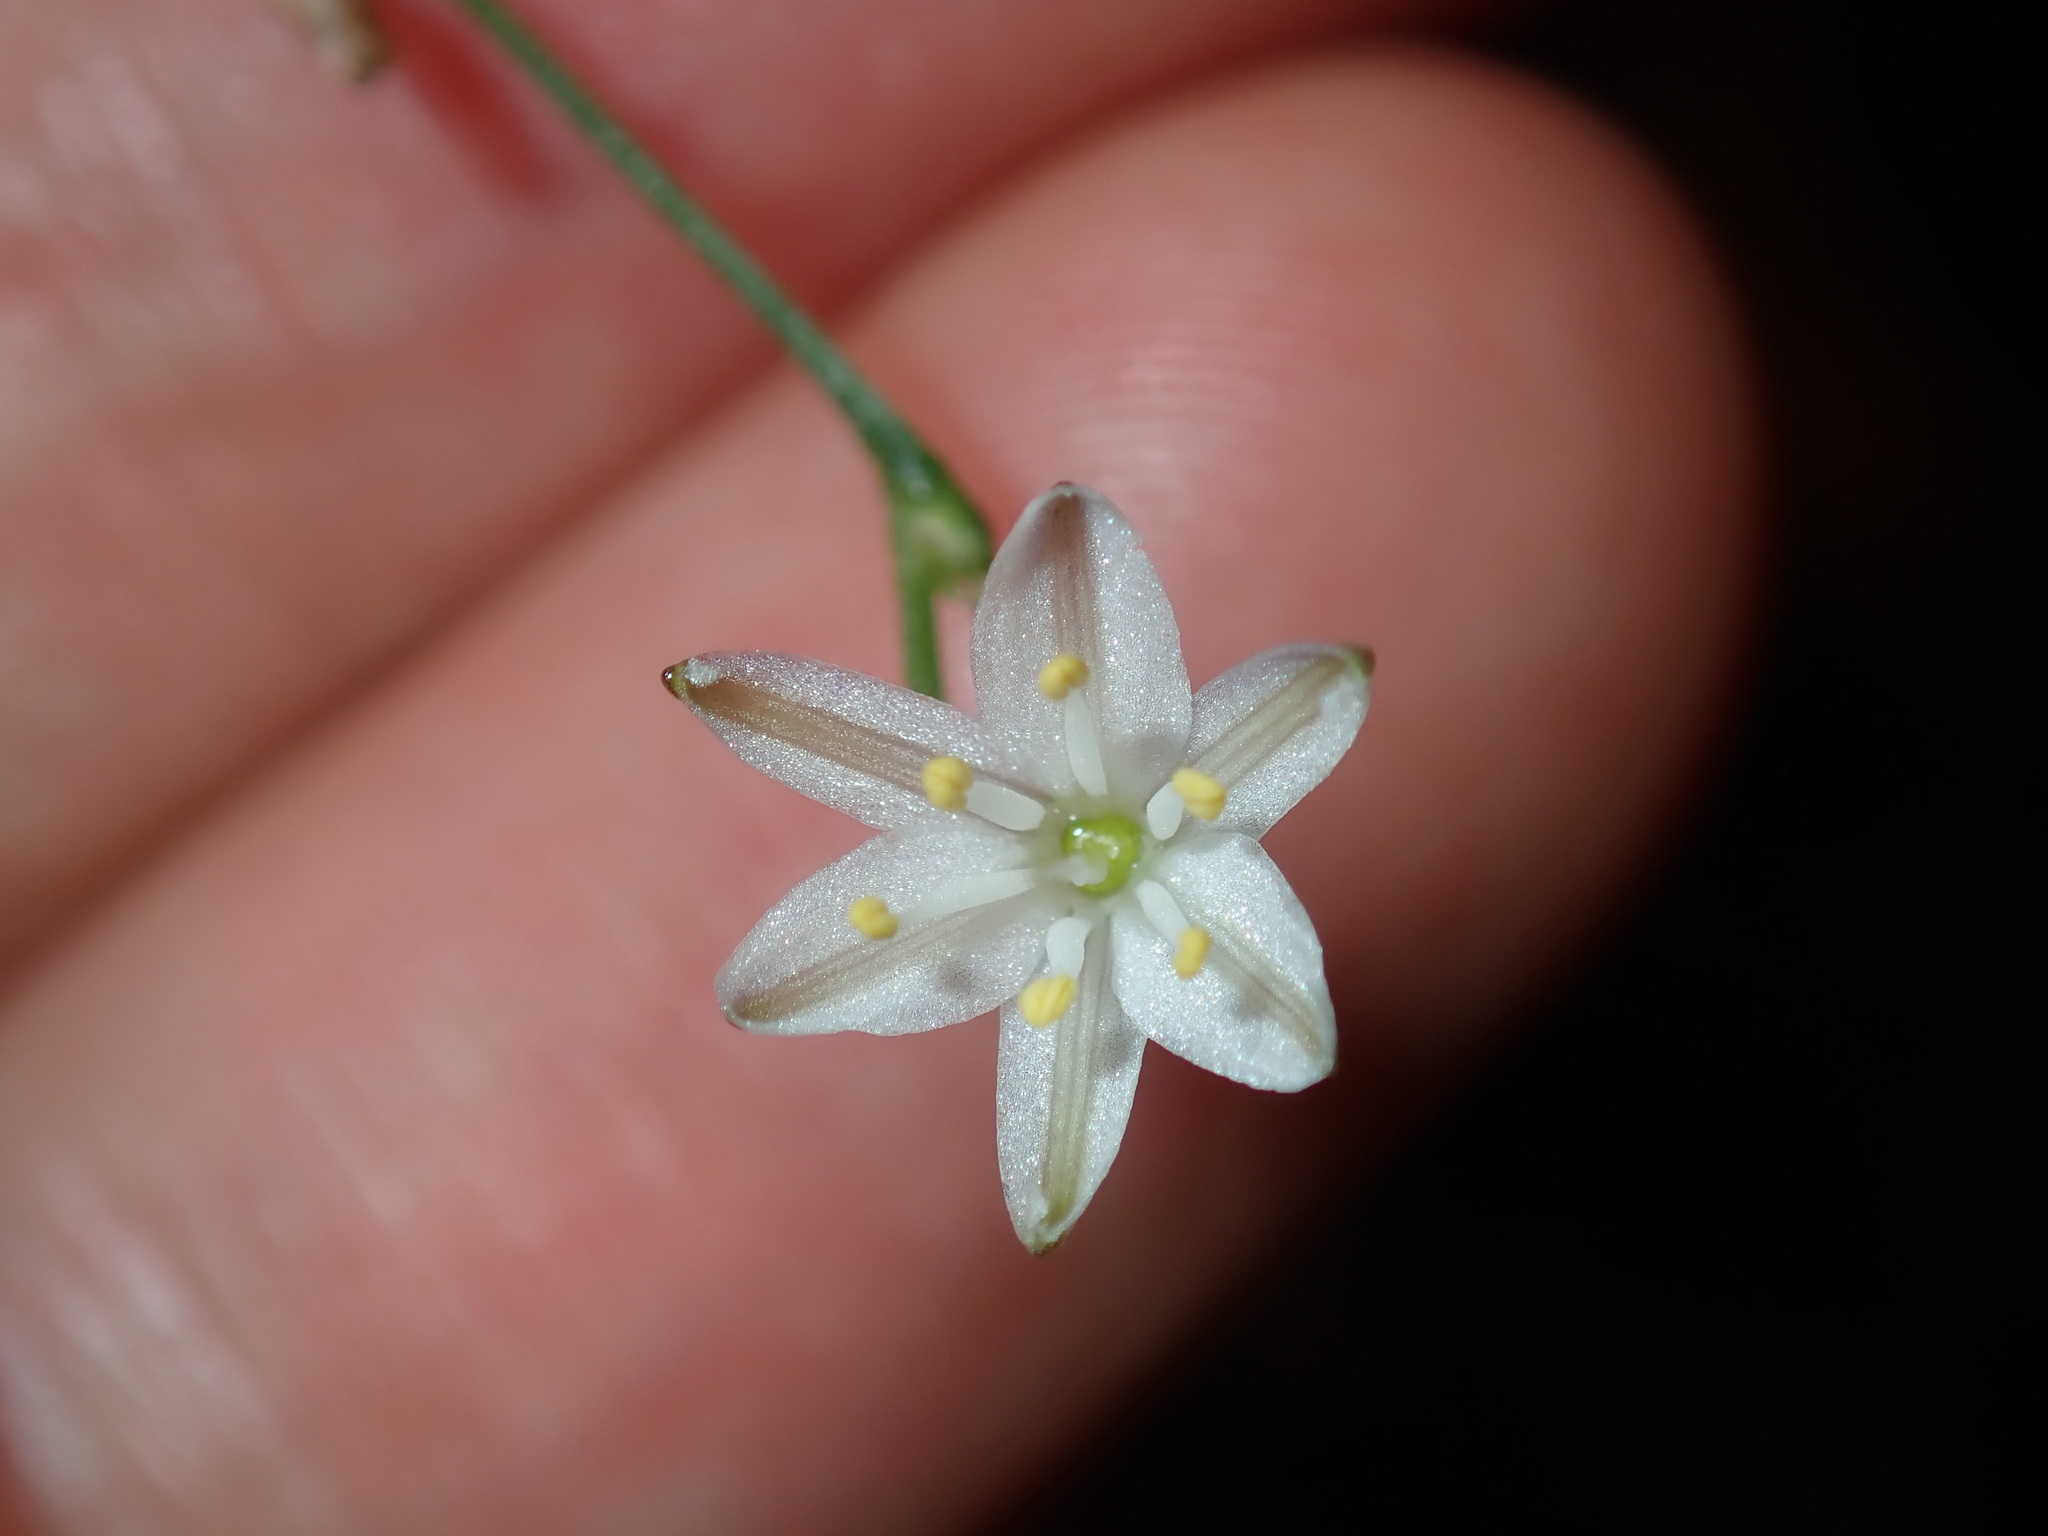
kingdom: Plantae
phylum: Tracheophyta
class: Liliopsida
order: Asparagales
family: Asphodelaceae
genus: Caesia
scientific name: Caesia parviflora
